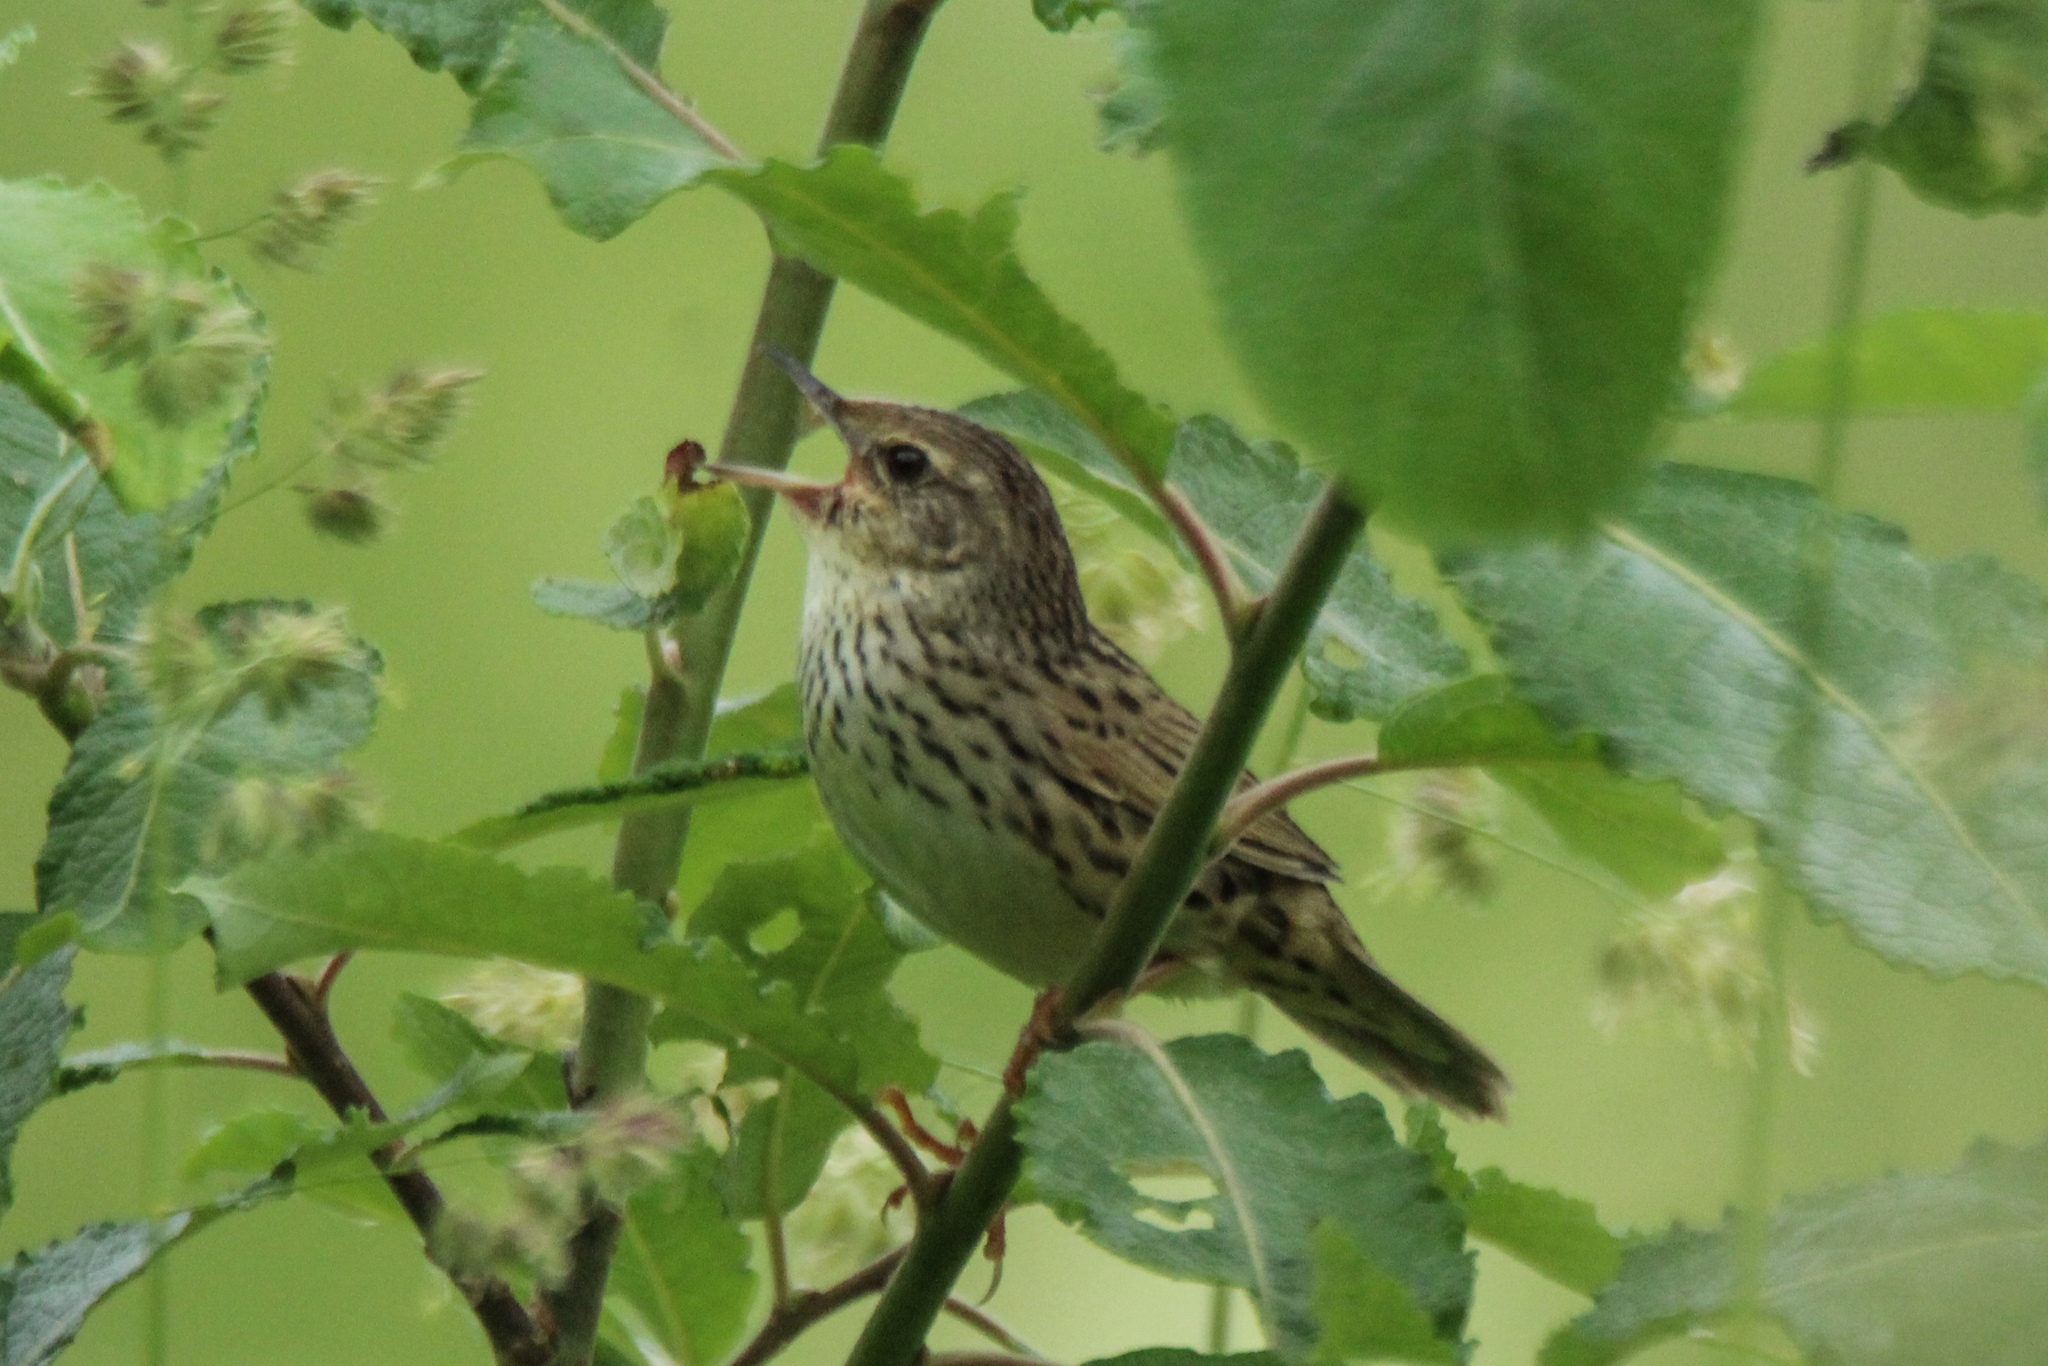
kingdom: Animalia
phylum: Chordata
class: Aves
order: Passeriformes
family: Locustellidae
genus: Locustella
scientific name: Locustella lanceolata
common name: Lanceolated warbler
